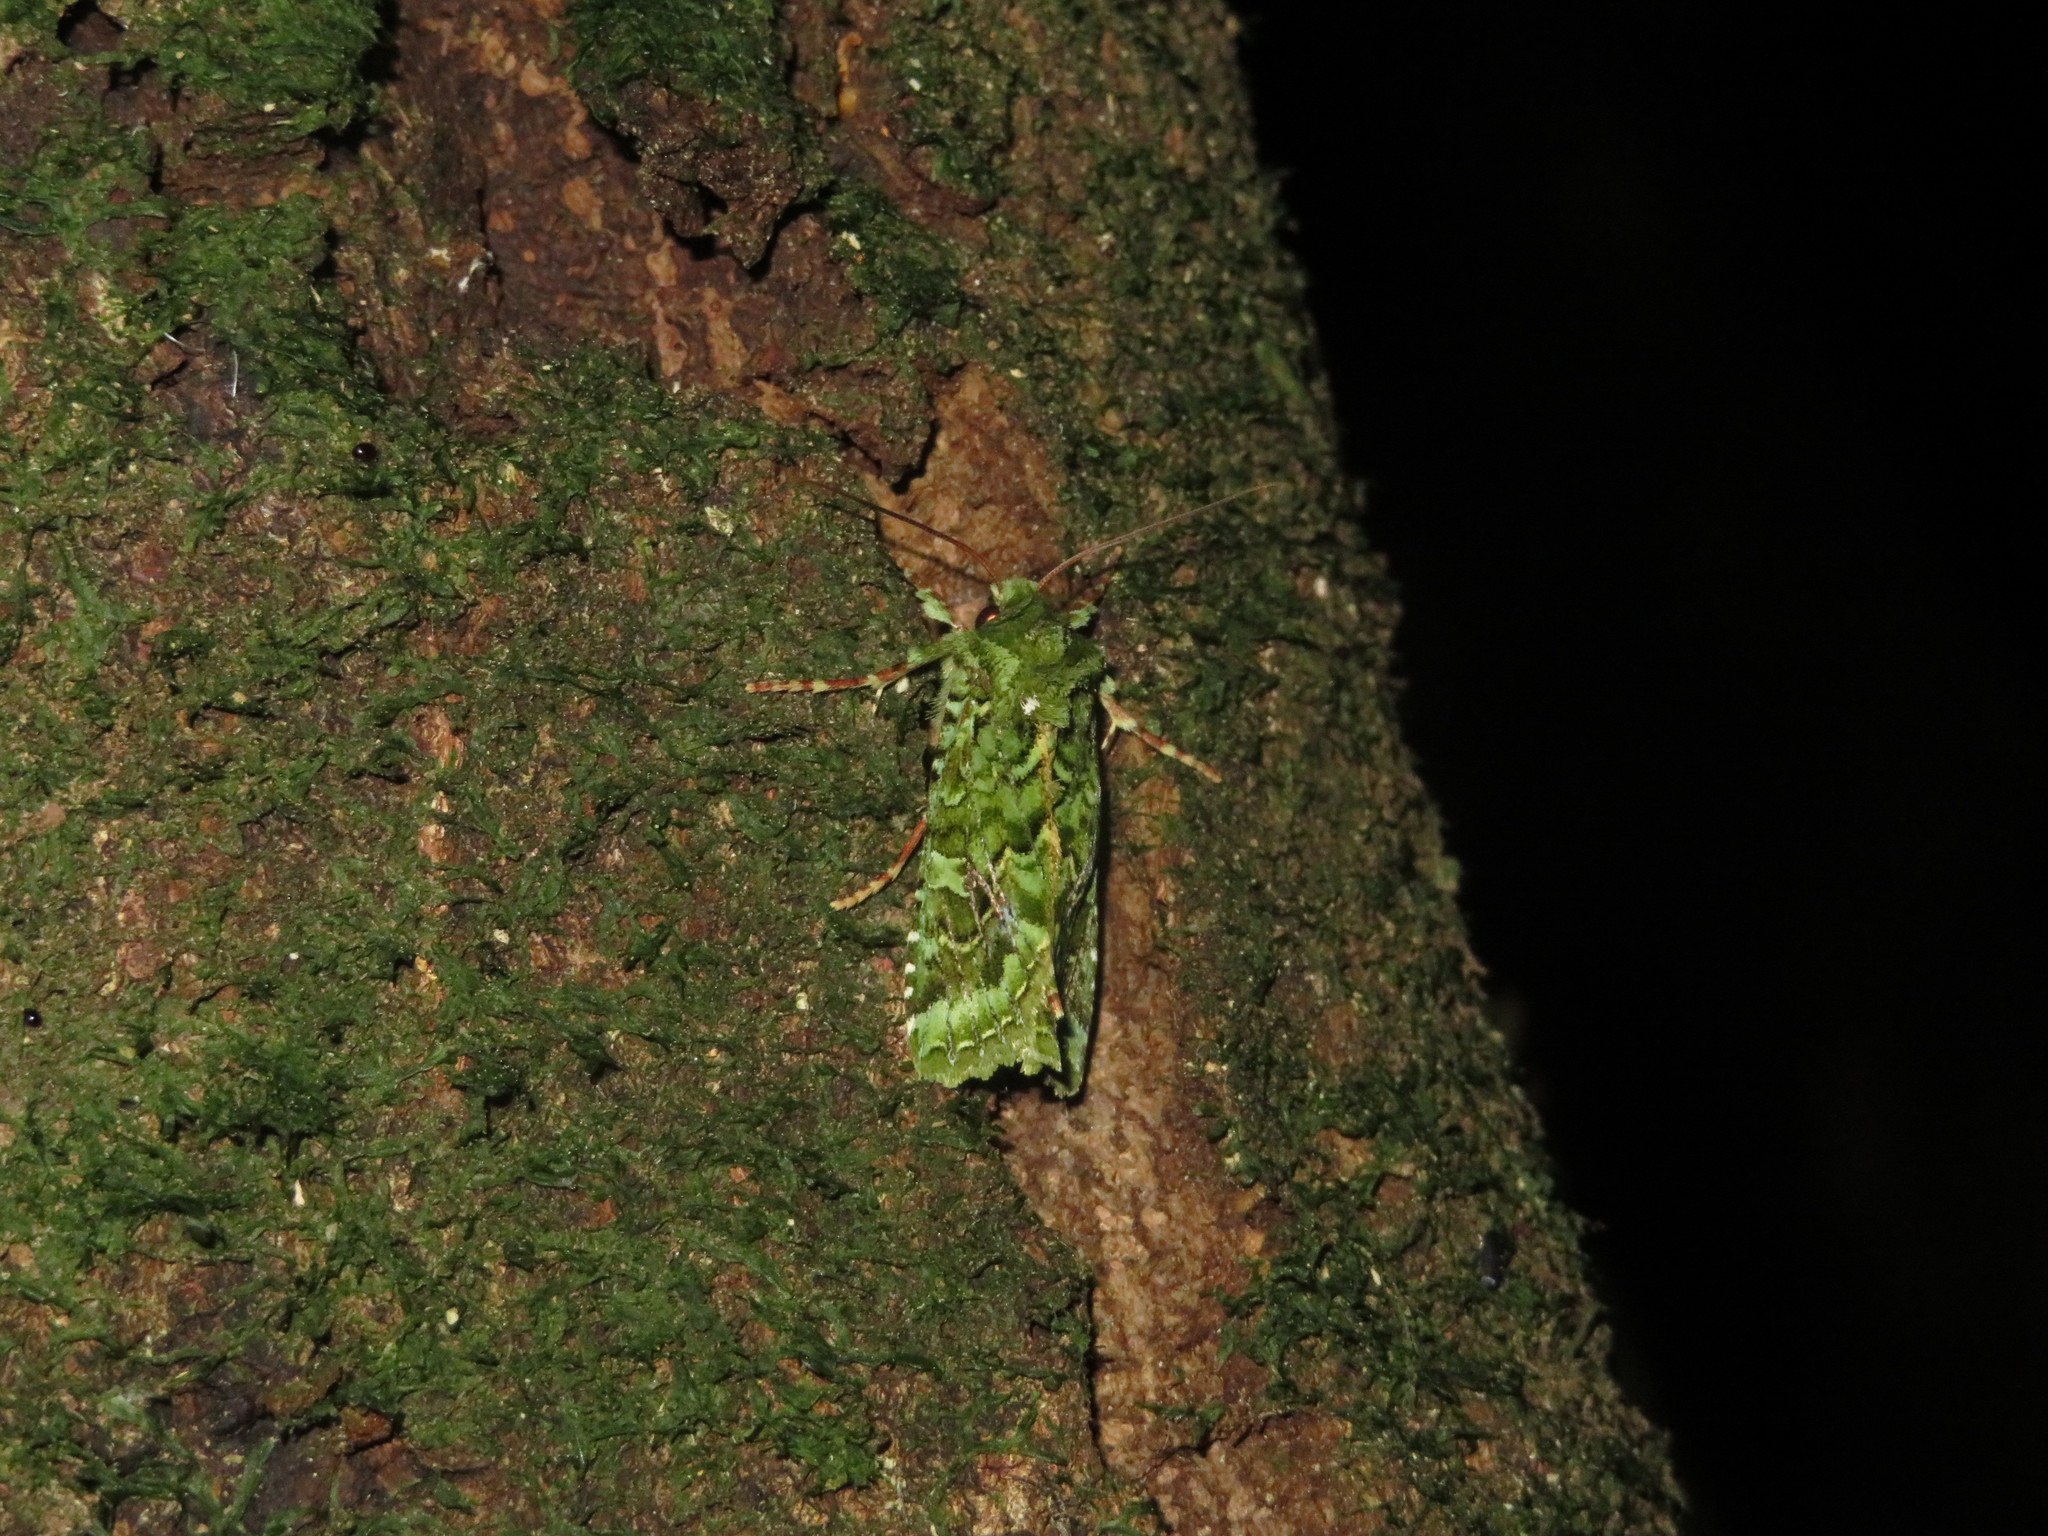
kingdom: Animalia
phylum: Arthropoda
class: Insecta
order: Lepidoptera
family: Noctuidae
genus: Feredayia
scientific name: Feredayia grammosa
